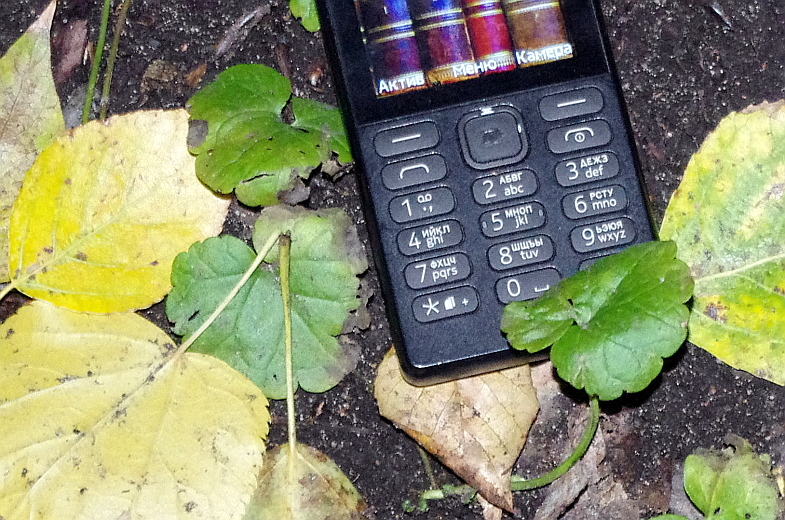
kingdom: Plantae
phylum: Tracheophyta
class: Magnoliopsida
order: Lamiales
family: Lamiaceae
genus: Glechoma
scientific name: Glechoma hederacea
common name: Ground ivy
